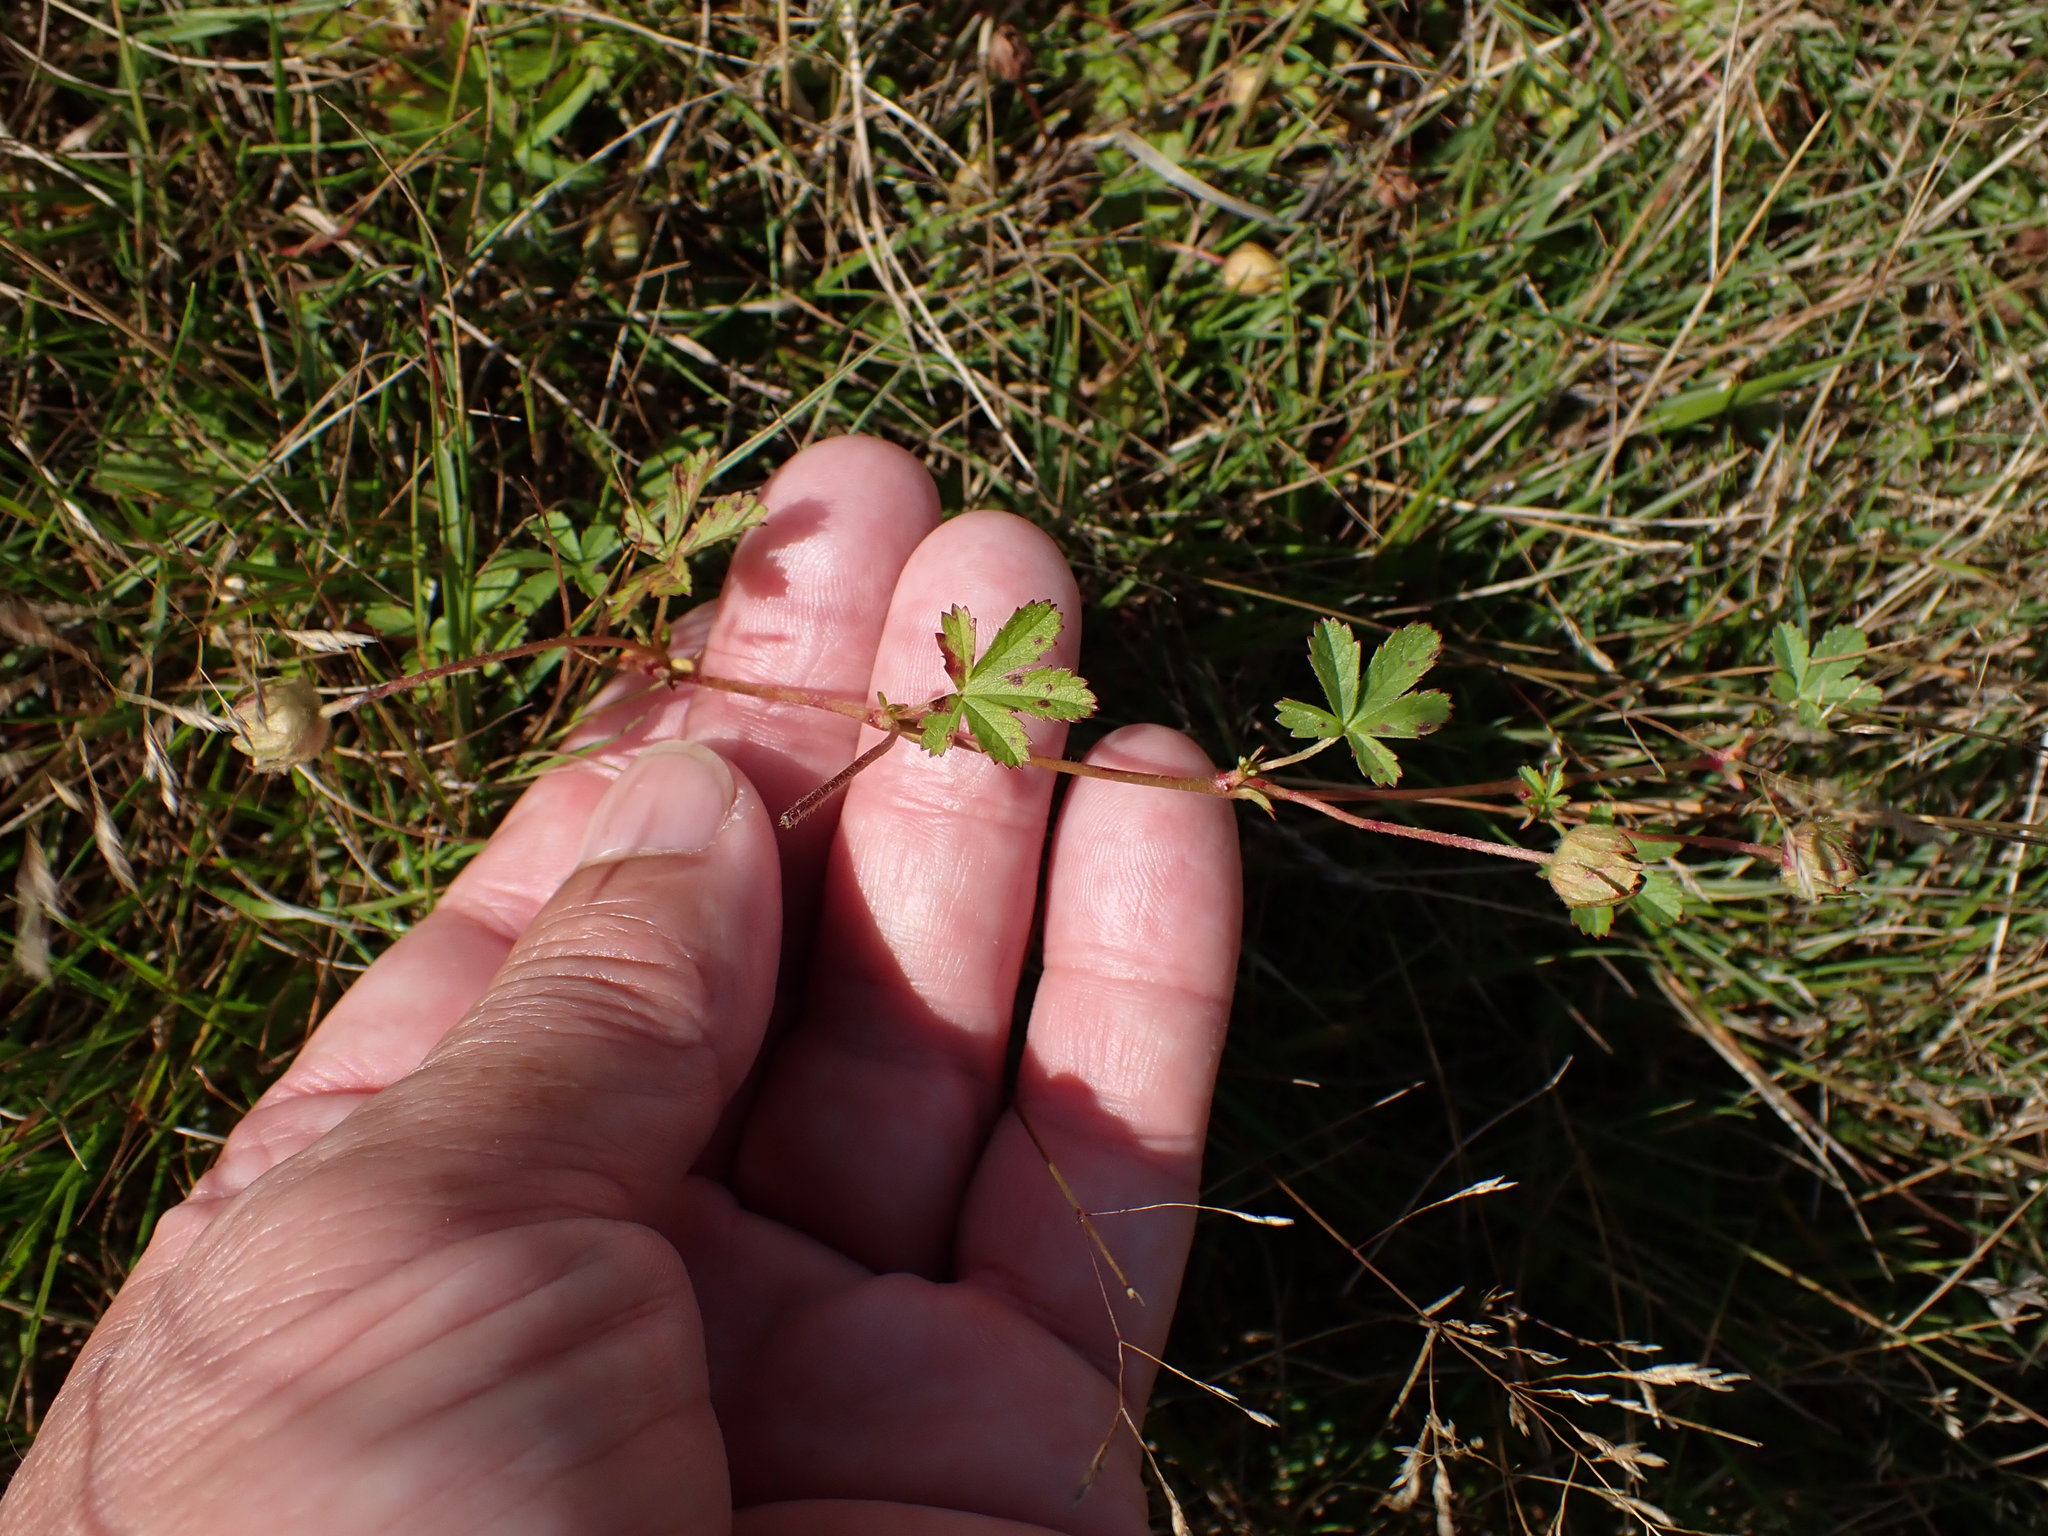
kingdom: Plantae
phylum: Tracheophyta
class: Magnoliopsida
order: Rosales
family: Rosaceae
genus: Potentilla
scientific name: Potentilla reptans
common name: Creeping cinquefoil
